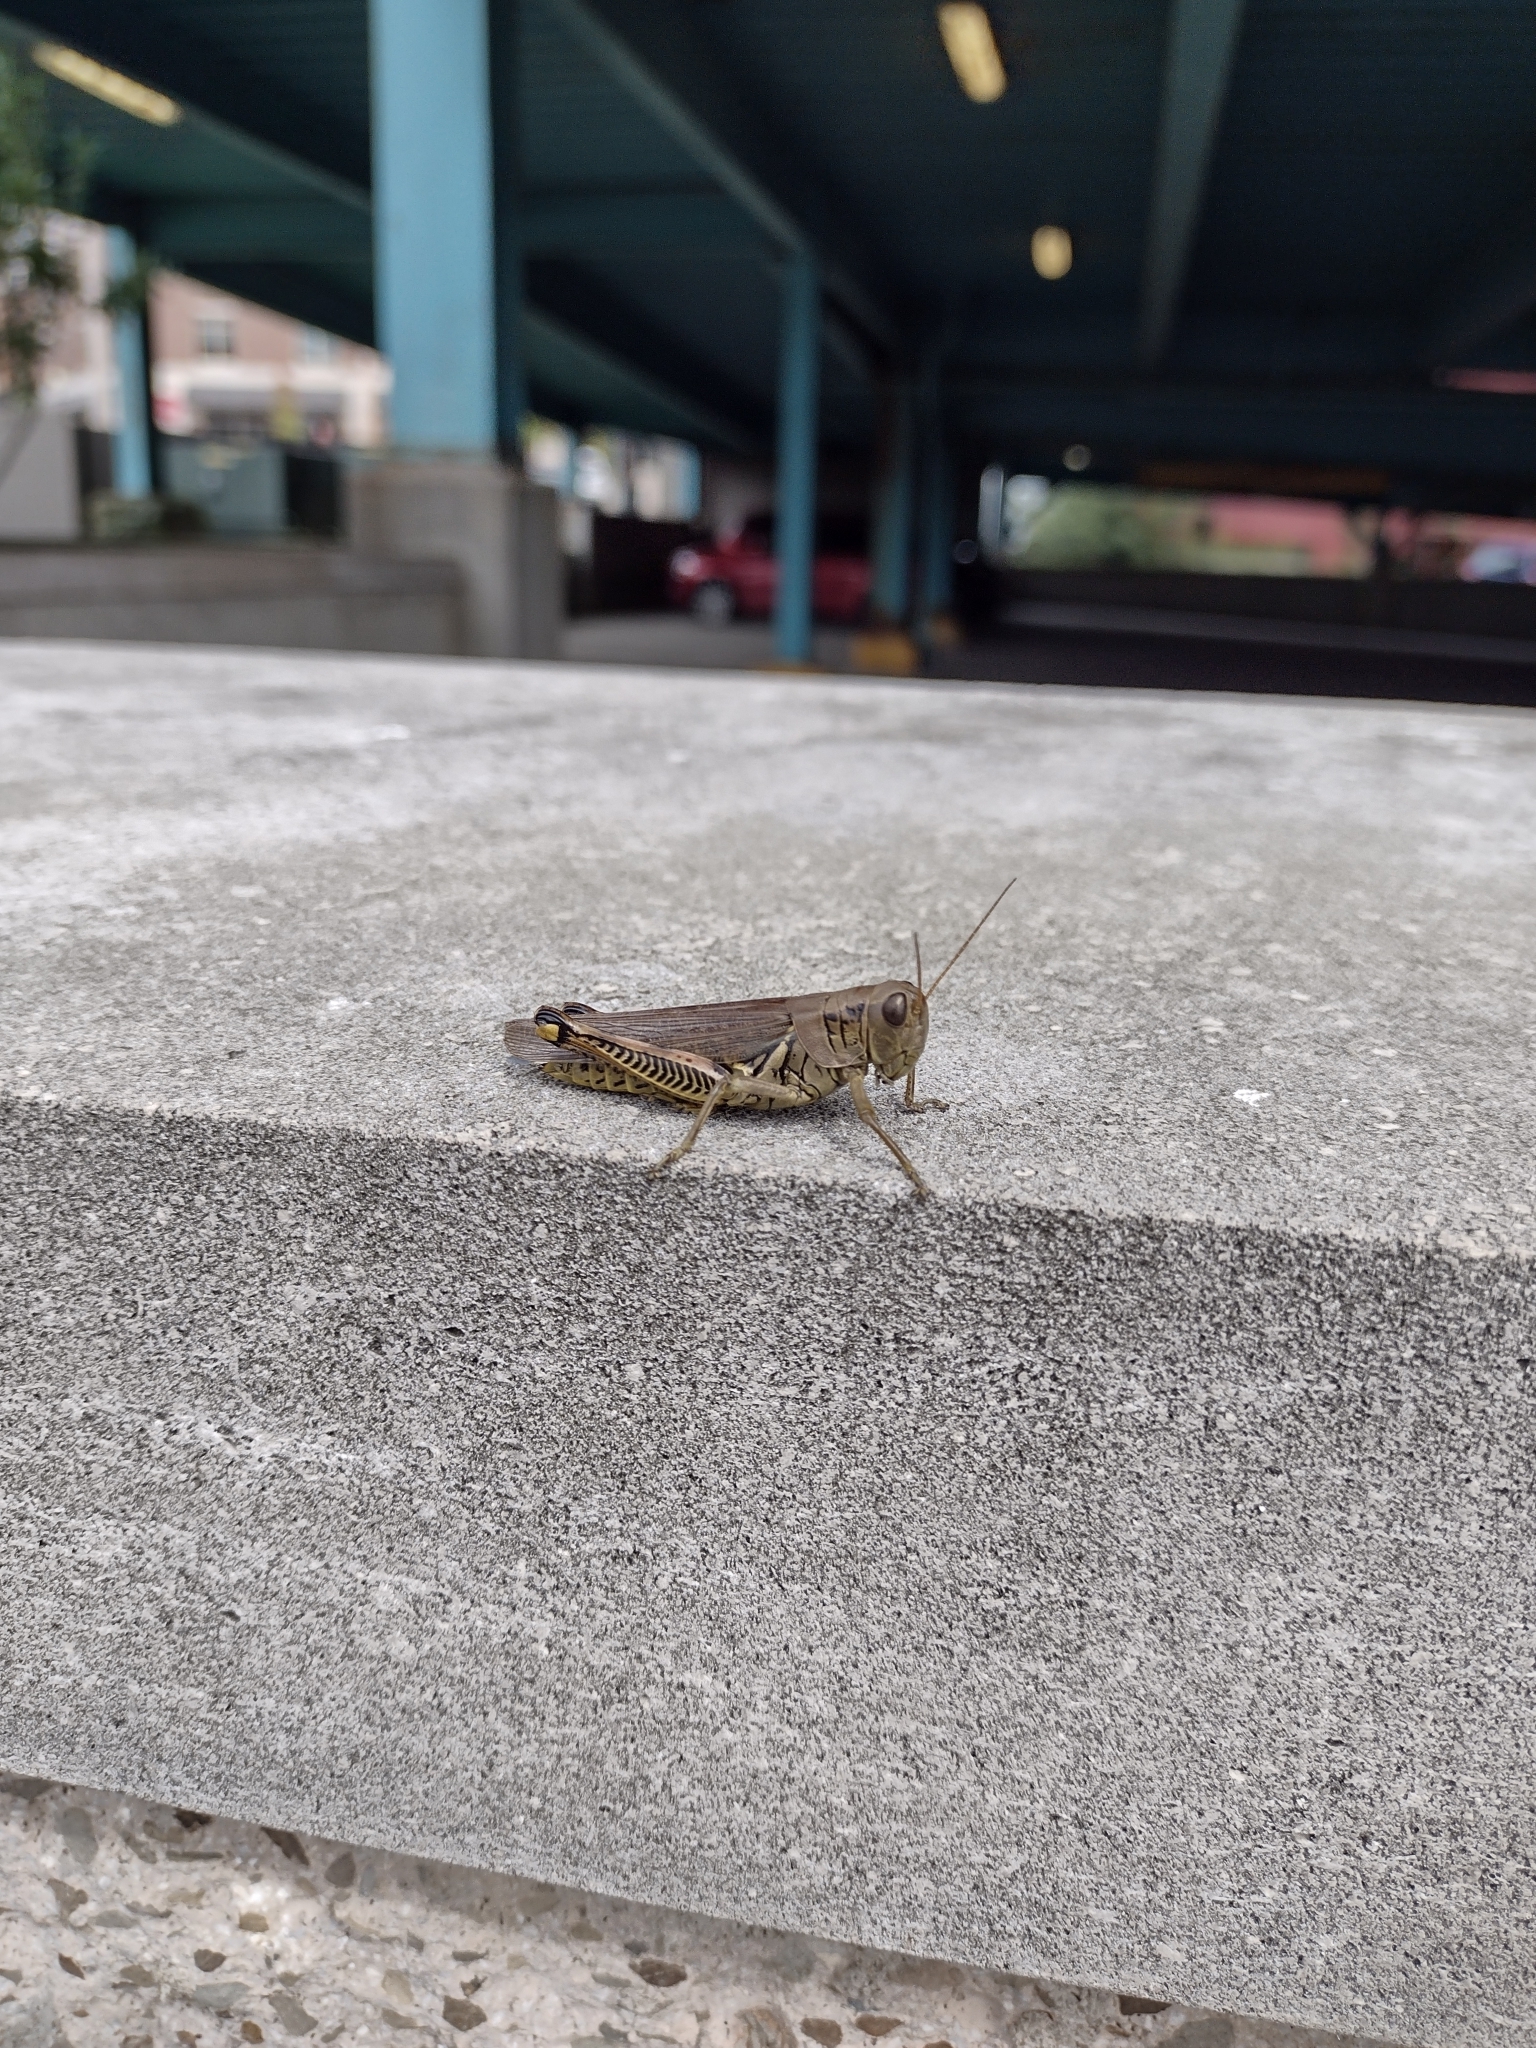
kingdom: Animalia
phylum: Arthropoda
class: Insecta
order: Orthoptera
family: Acrididae
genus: Melanoplus
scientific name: Melanoplus differentialis
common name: Differential grasshopper
